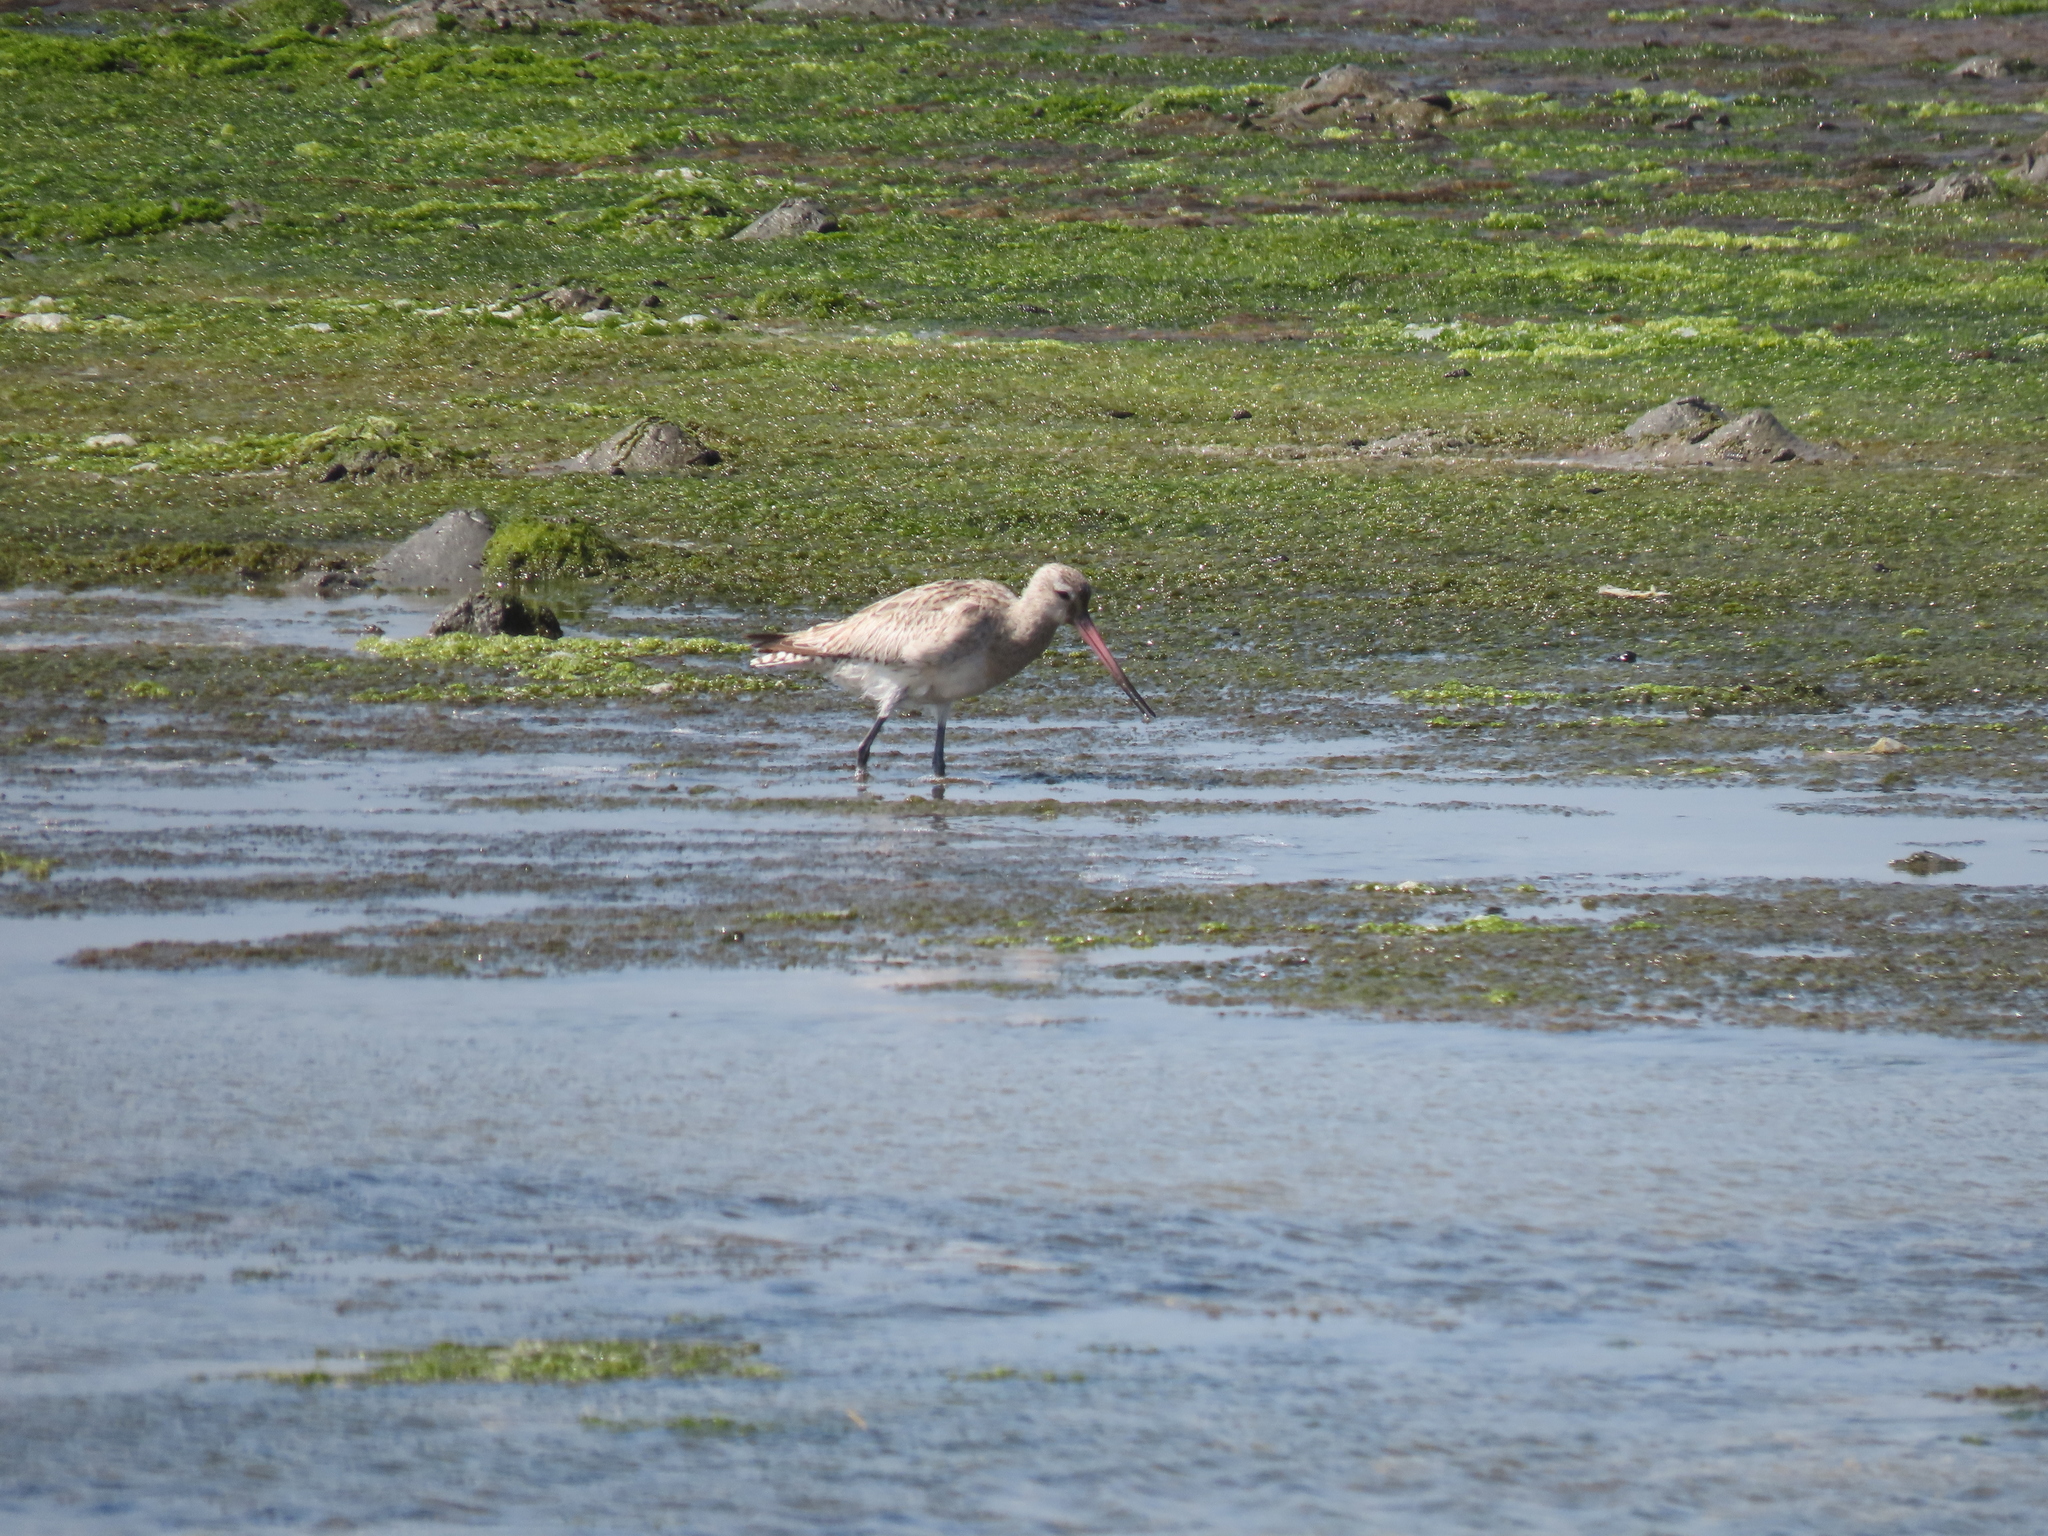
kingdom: Animalia
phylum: Chordata
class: Aves
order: Charadriiformes
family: Scolopacidae
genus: Limosa
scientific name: Limosa lapponica
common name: Bar-tailed godwit
